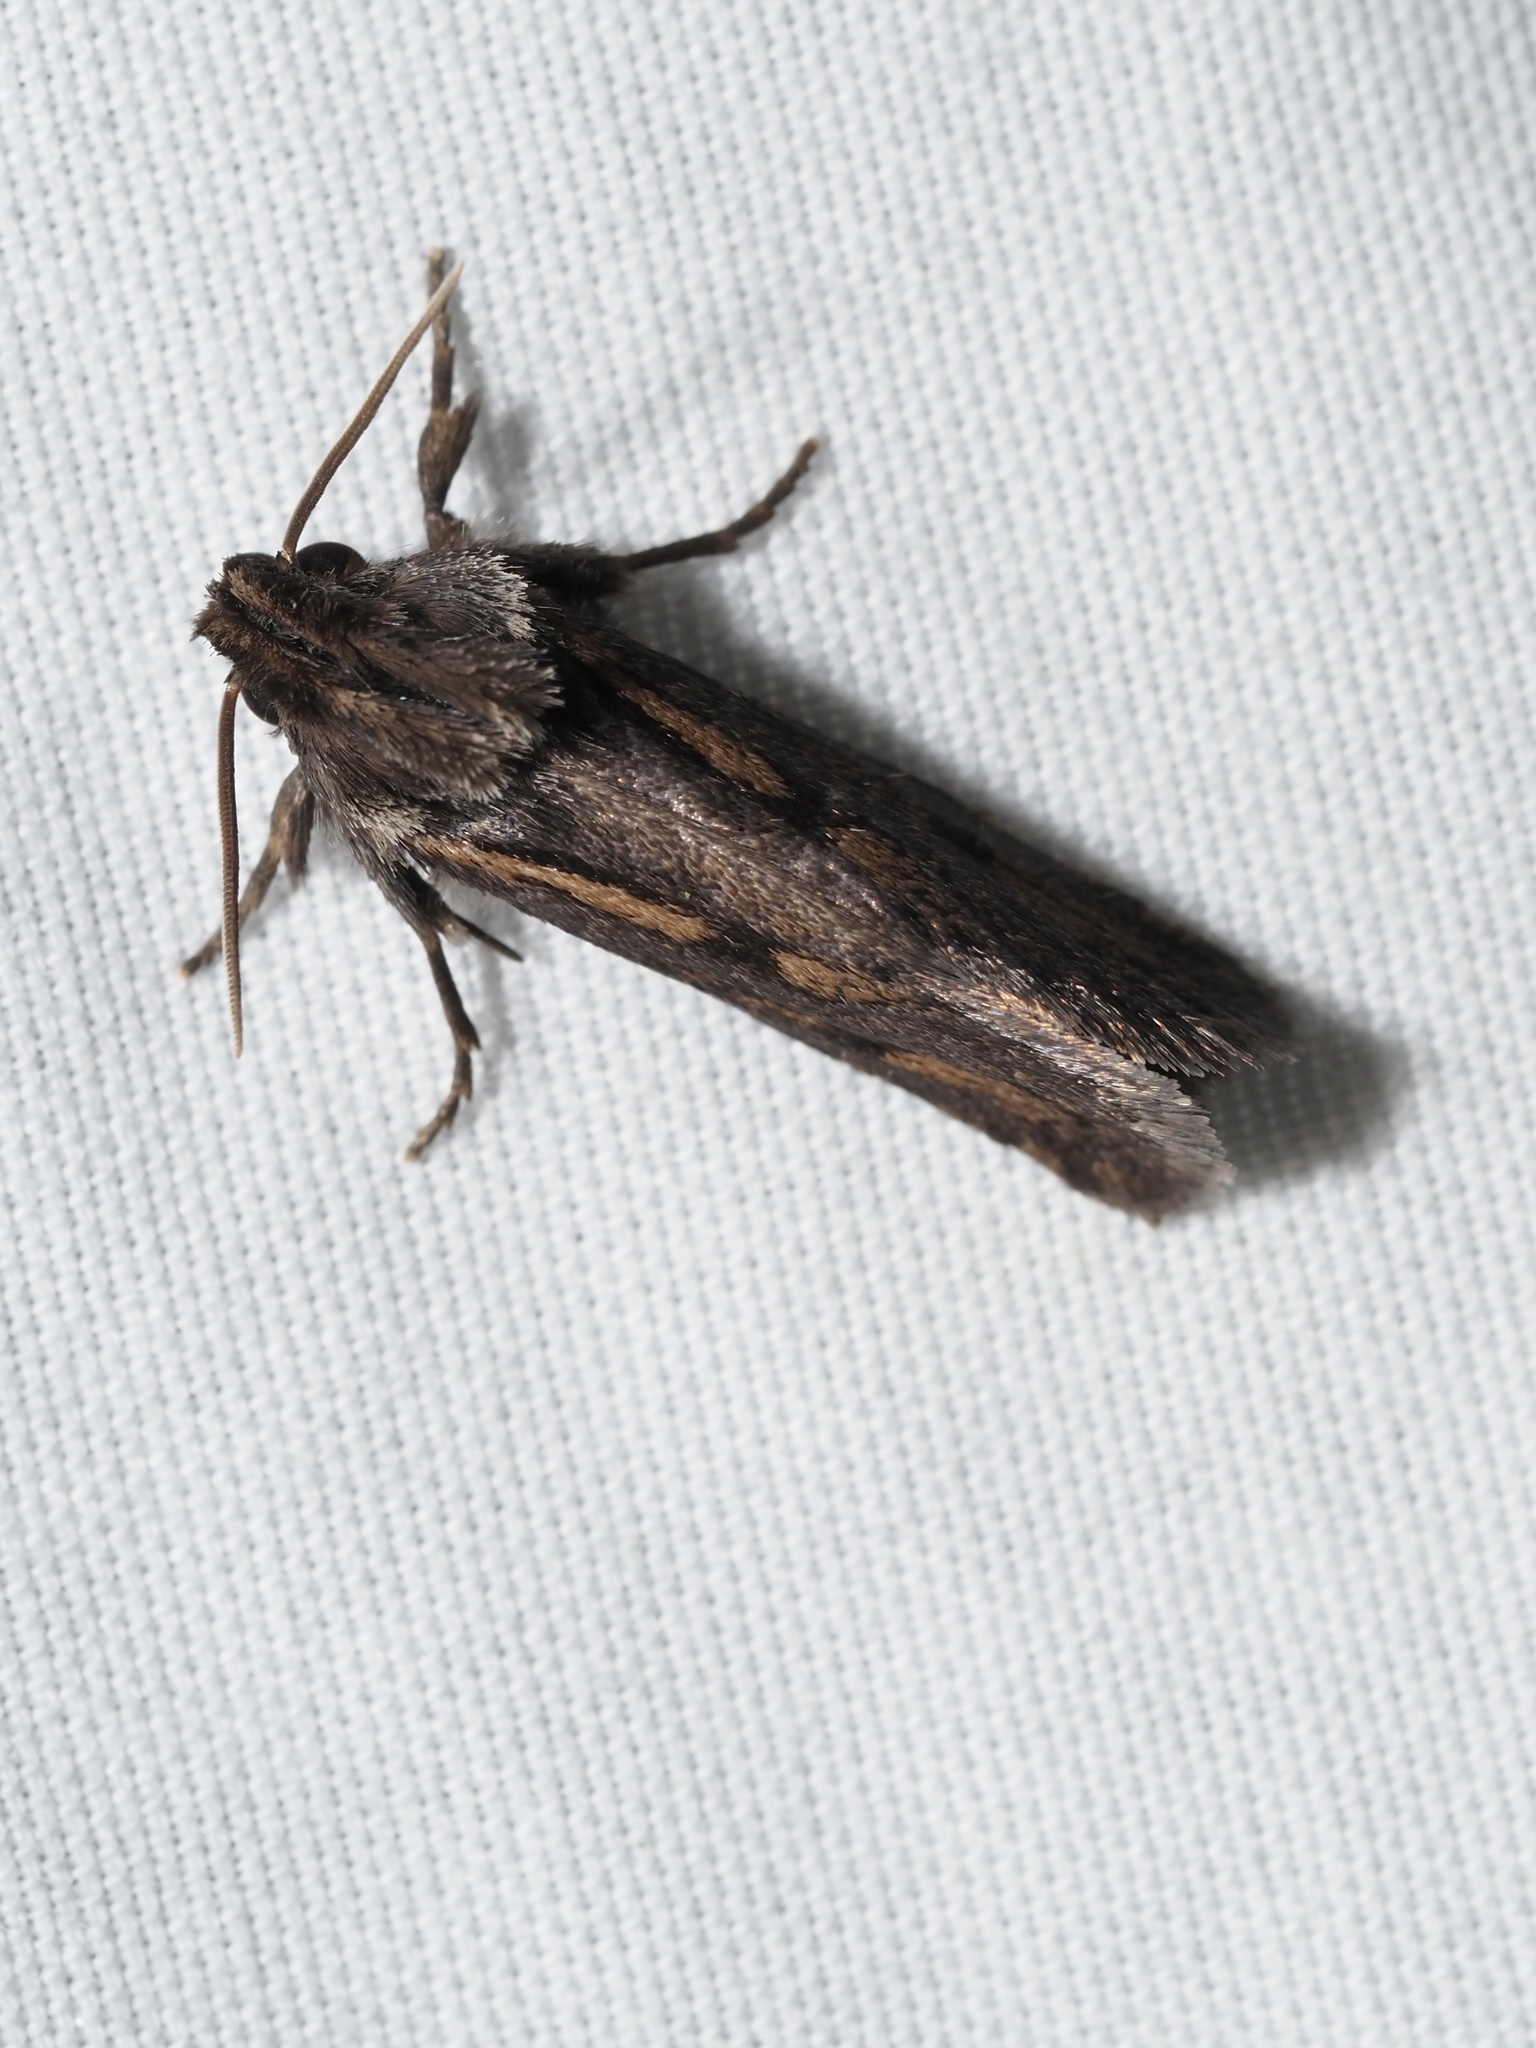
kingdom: Animalia
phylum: Arthropoda
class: Insecta
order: Lepidoptera
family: Tineidae
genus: Acrolophus
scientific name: Acrolophus popeanella
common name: Clemens' grass tubeworm moth
